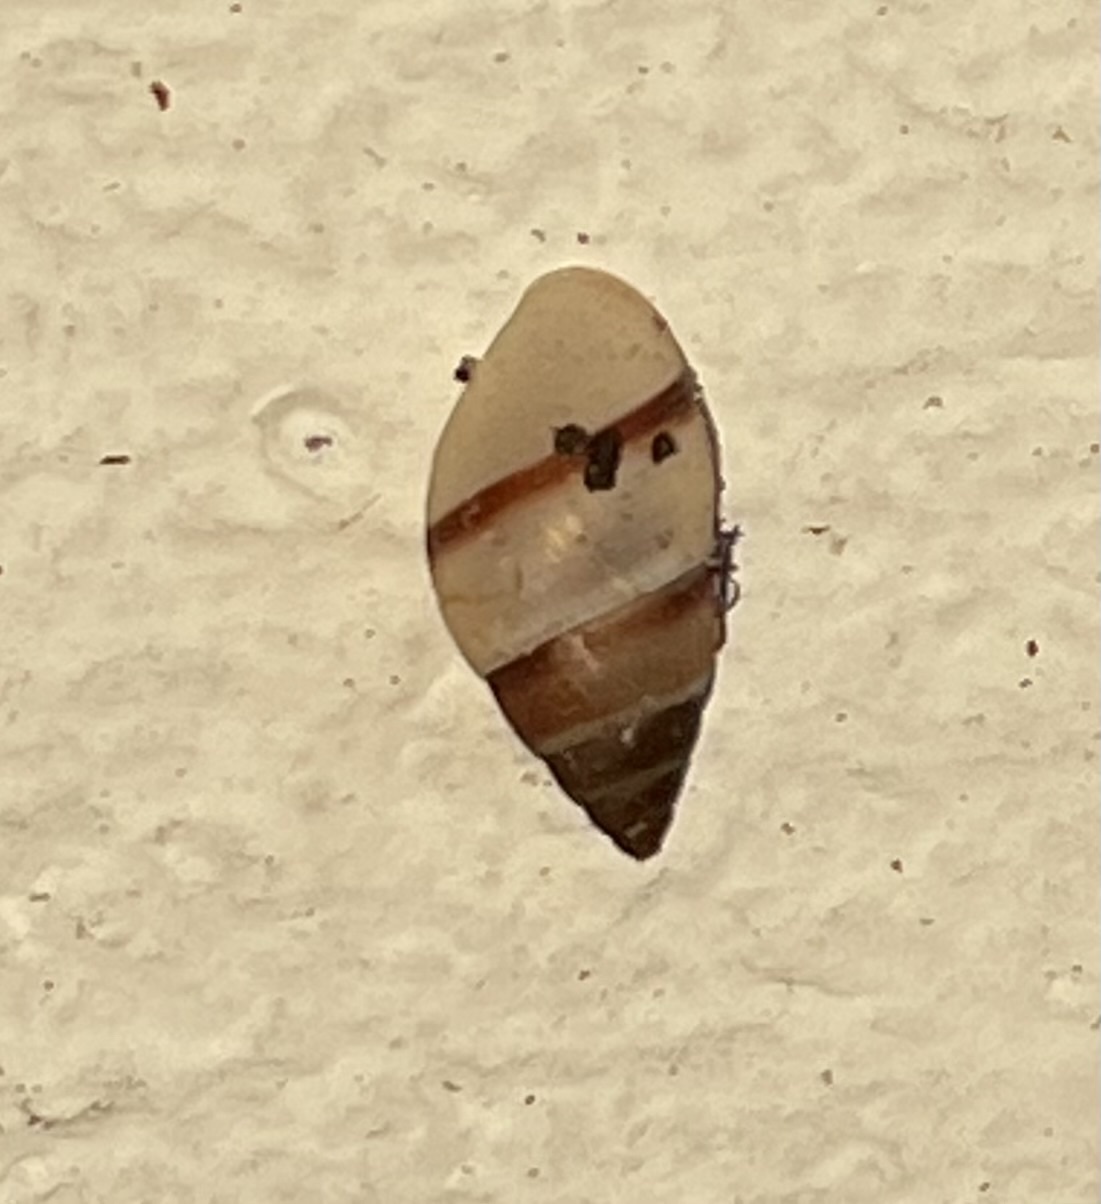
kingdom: Animalia
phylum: Mollusca
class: Gastropoda
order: Stylommatophora
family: Bulimulidae
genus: Bulimulus
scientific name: Bulimulus guadalupensis
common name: West indian bulimulus
